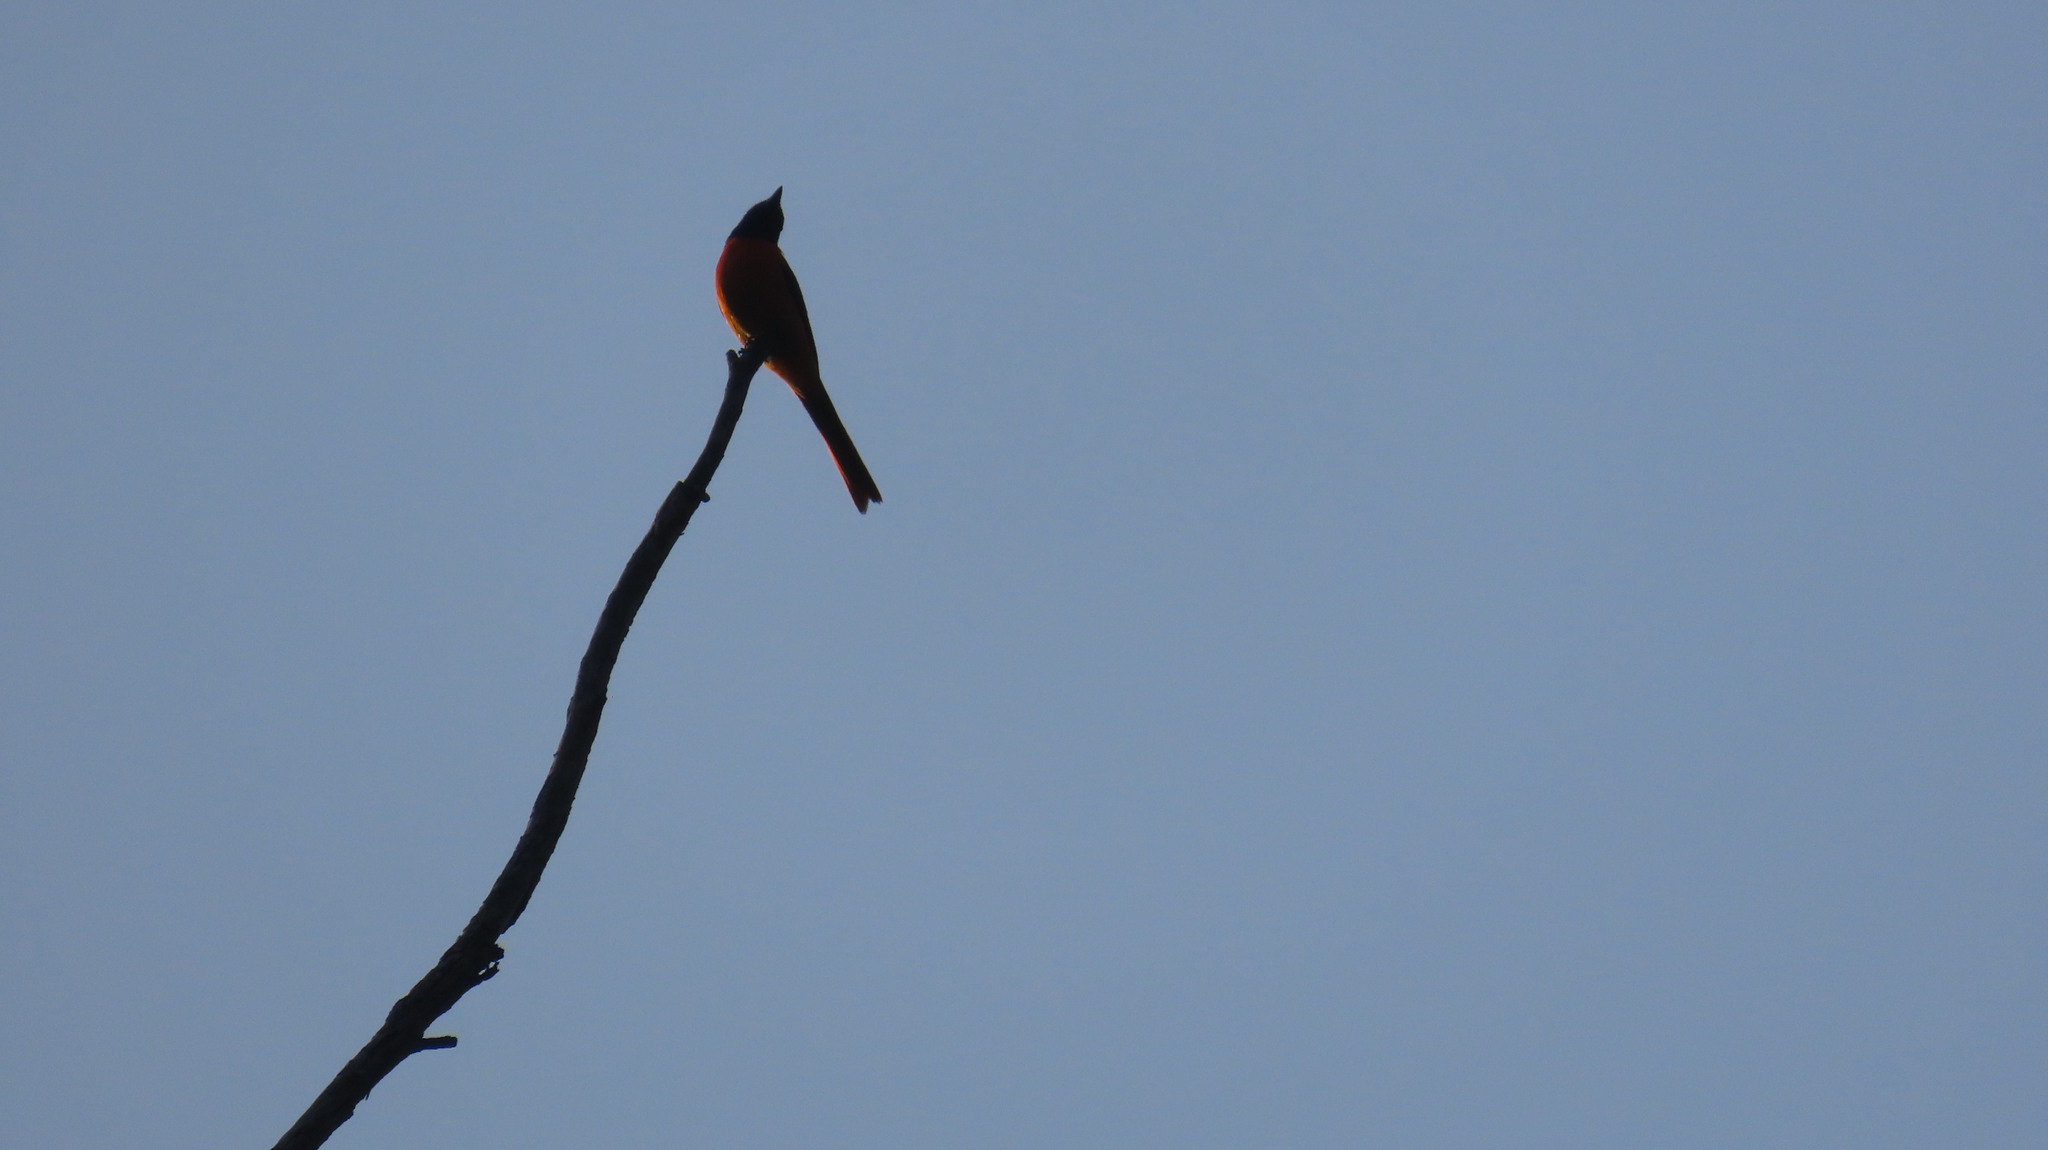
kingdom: Animalia
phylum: Chordata
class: Aves
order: Passeriformes
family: Campephagidae
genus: Pericrocotus
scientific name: Pericrocotus flammeus
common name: Orange minivet
